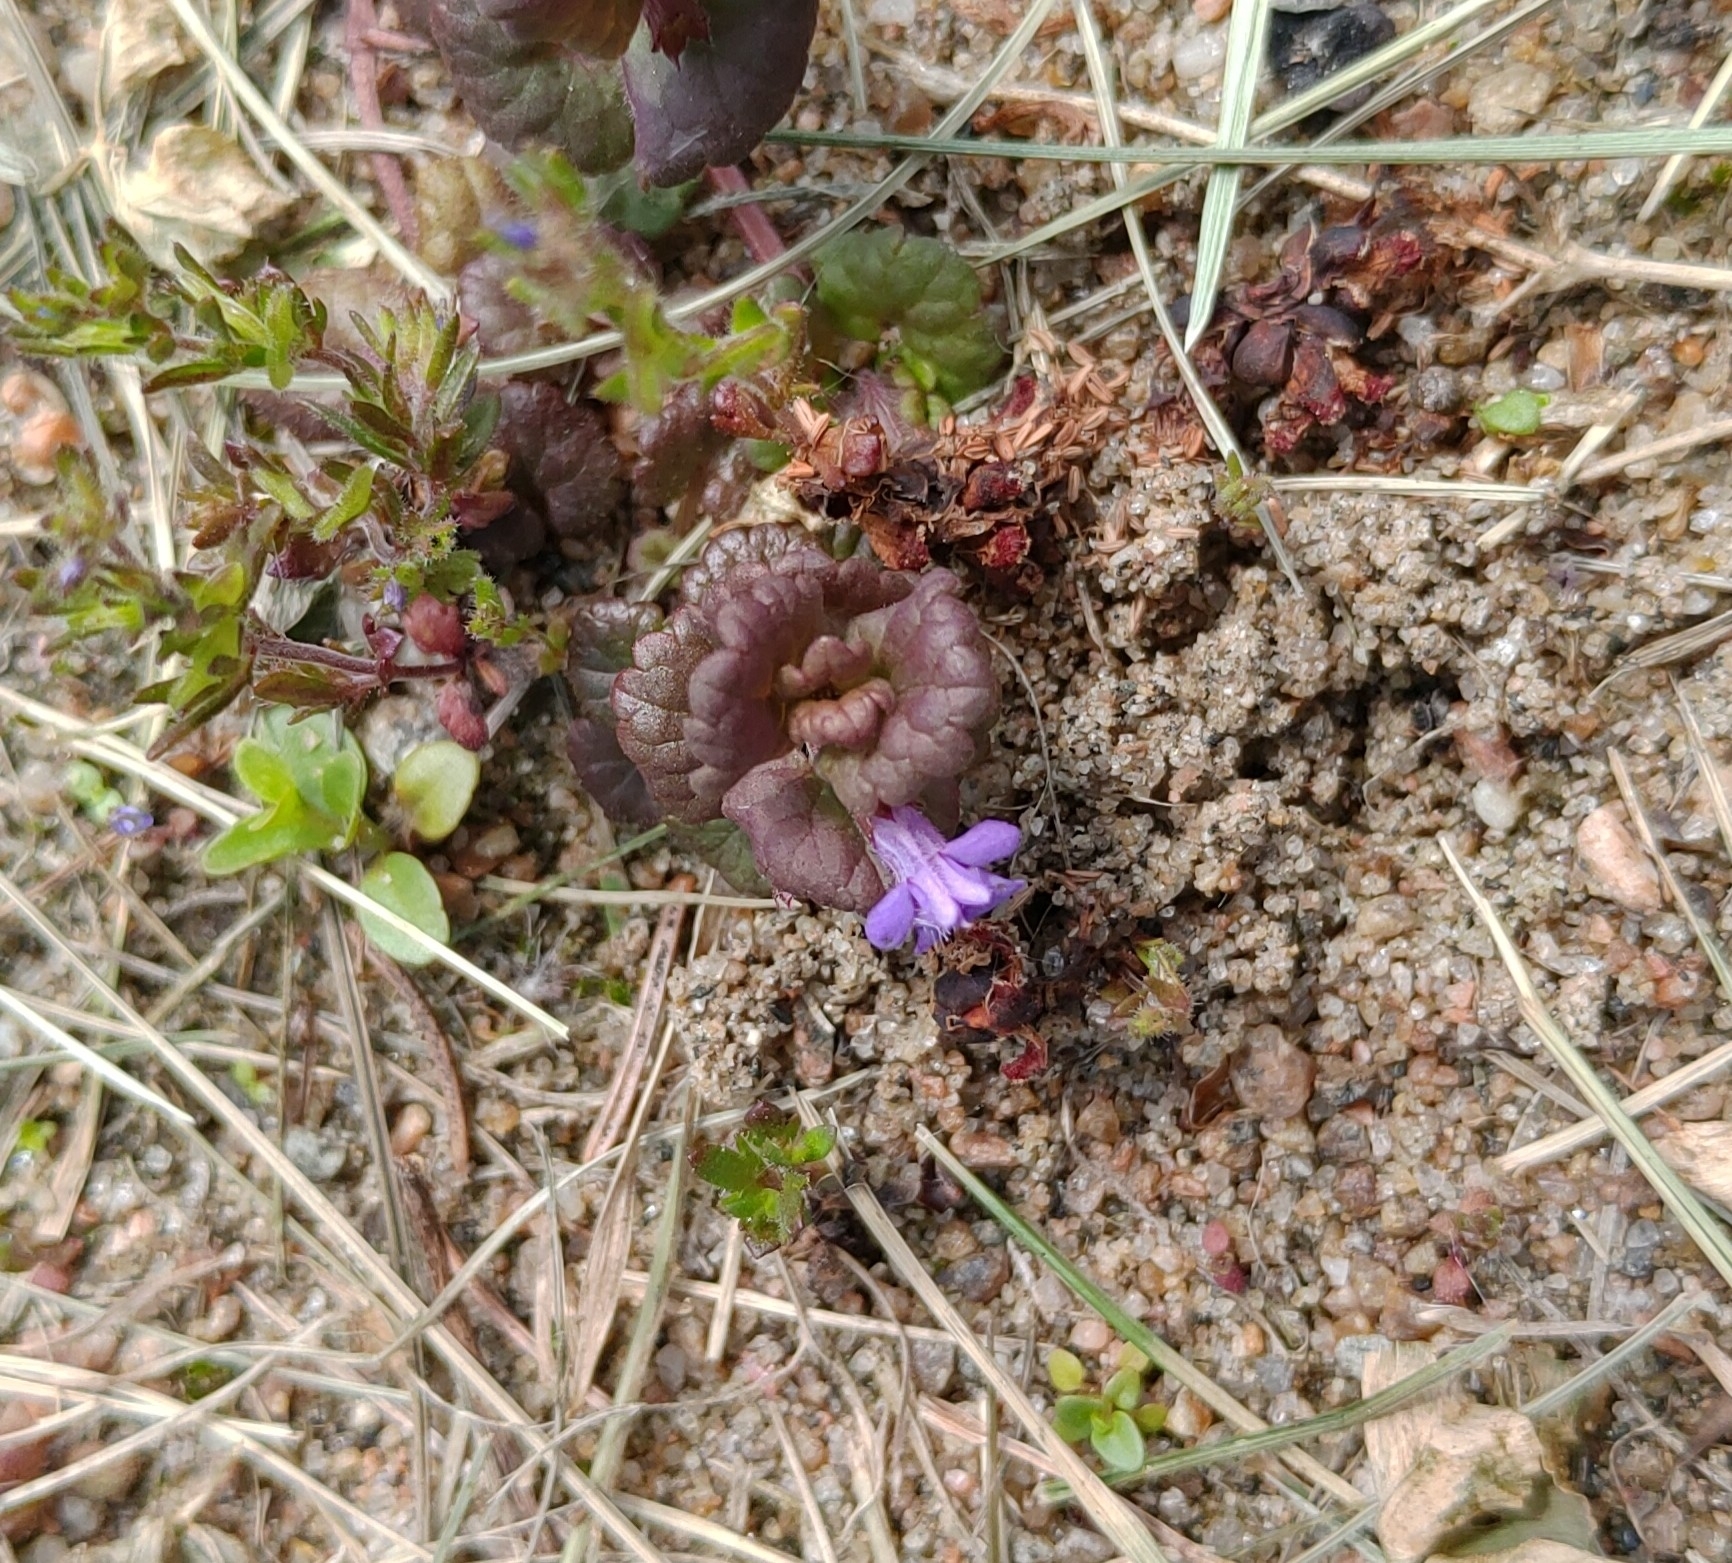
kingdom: Plantae
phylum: Tracheophyta
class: Magnoliopsida
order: Lamiales
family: Lamiaceae
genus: Glechoma
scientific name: Glechoma hederacea
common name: Ground ivy
